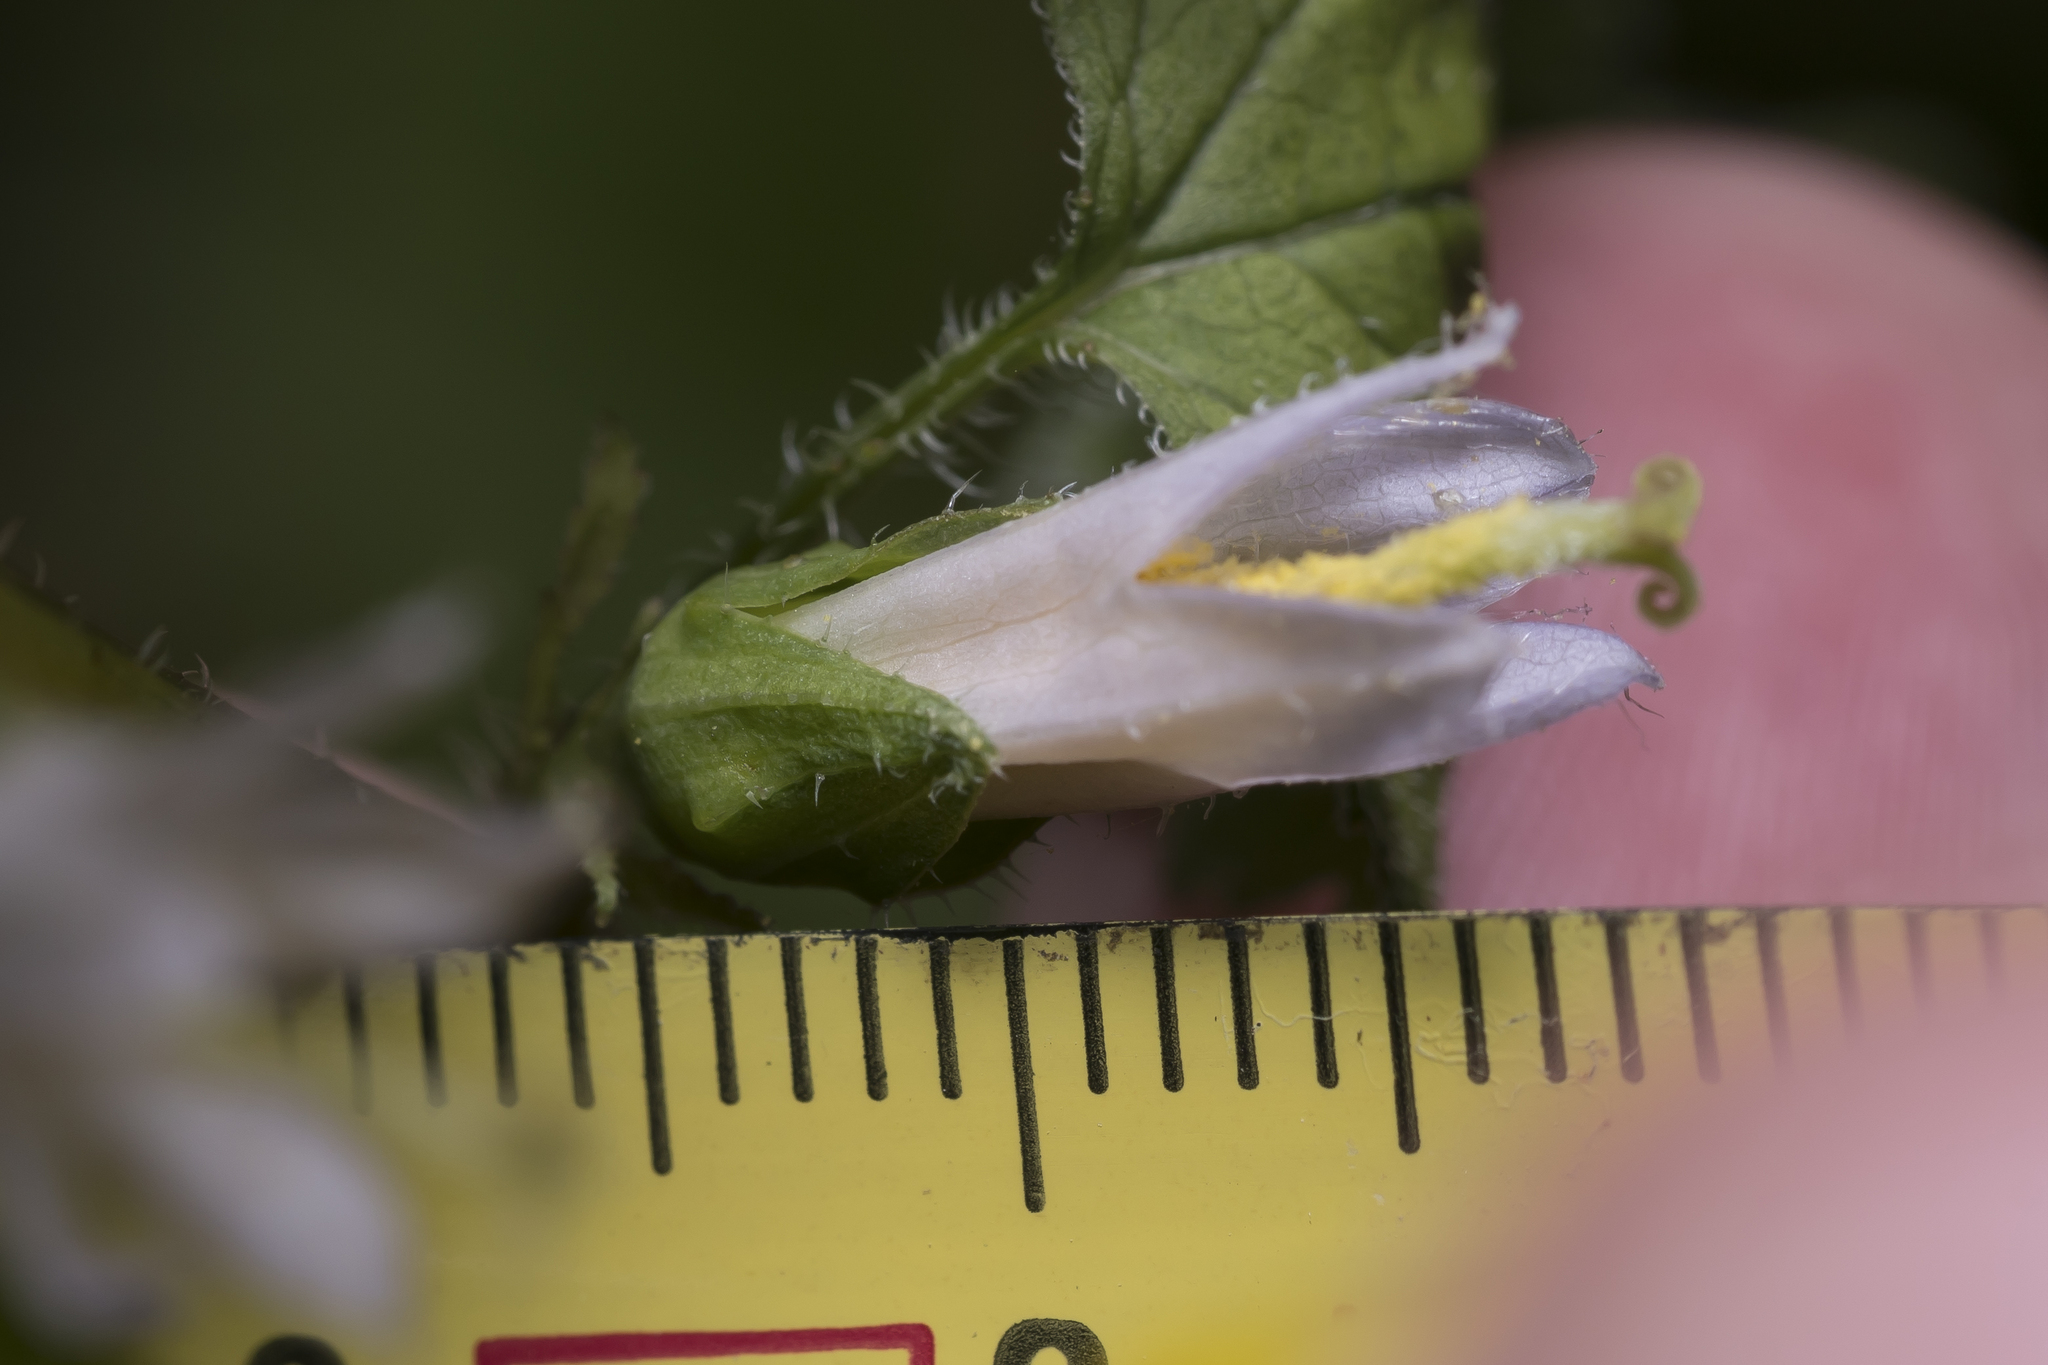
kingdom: Plantae
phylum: Tracheophyta
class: Magnoliopsida
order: Asterales
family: Campanulaceae
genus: Campanula
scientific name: Campanula trachelium
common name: Nettle-leaved bellflower
